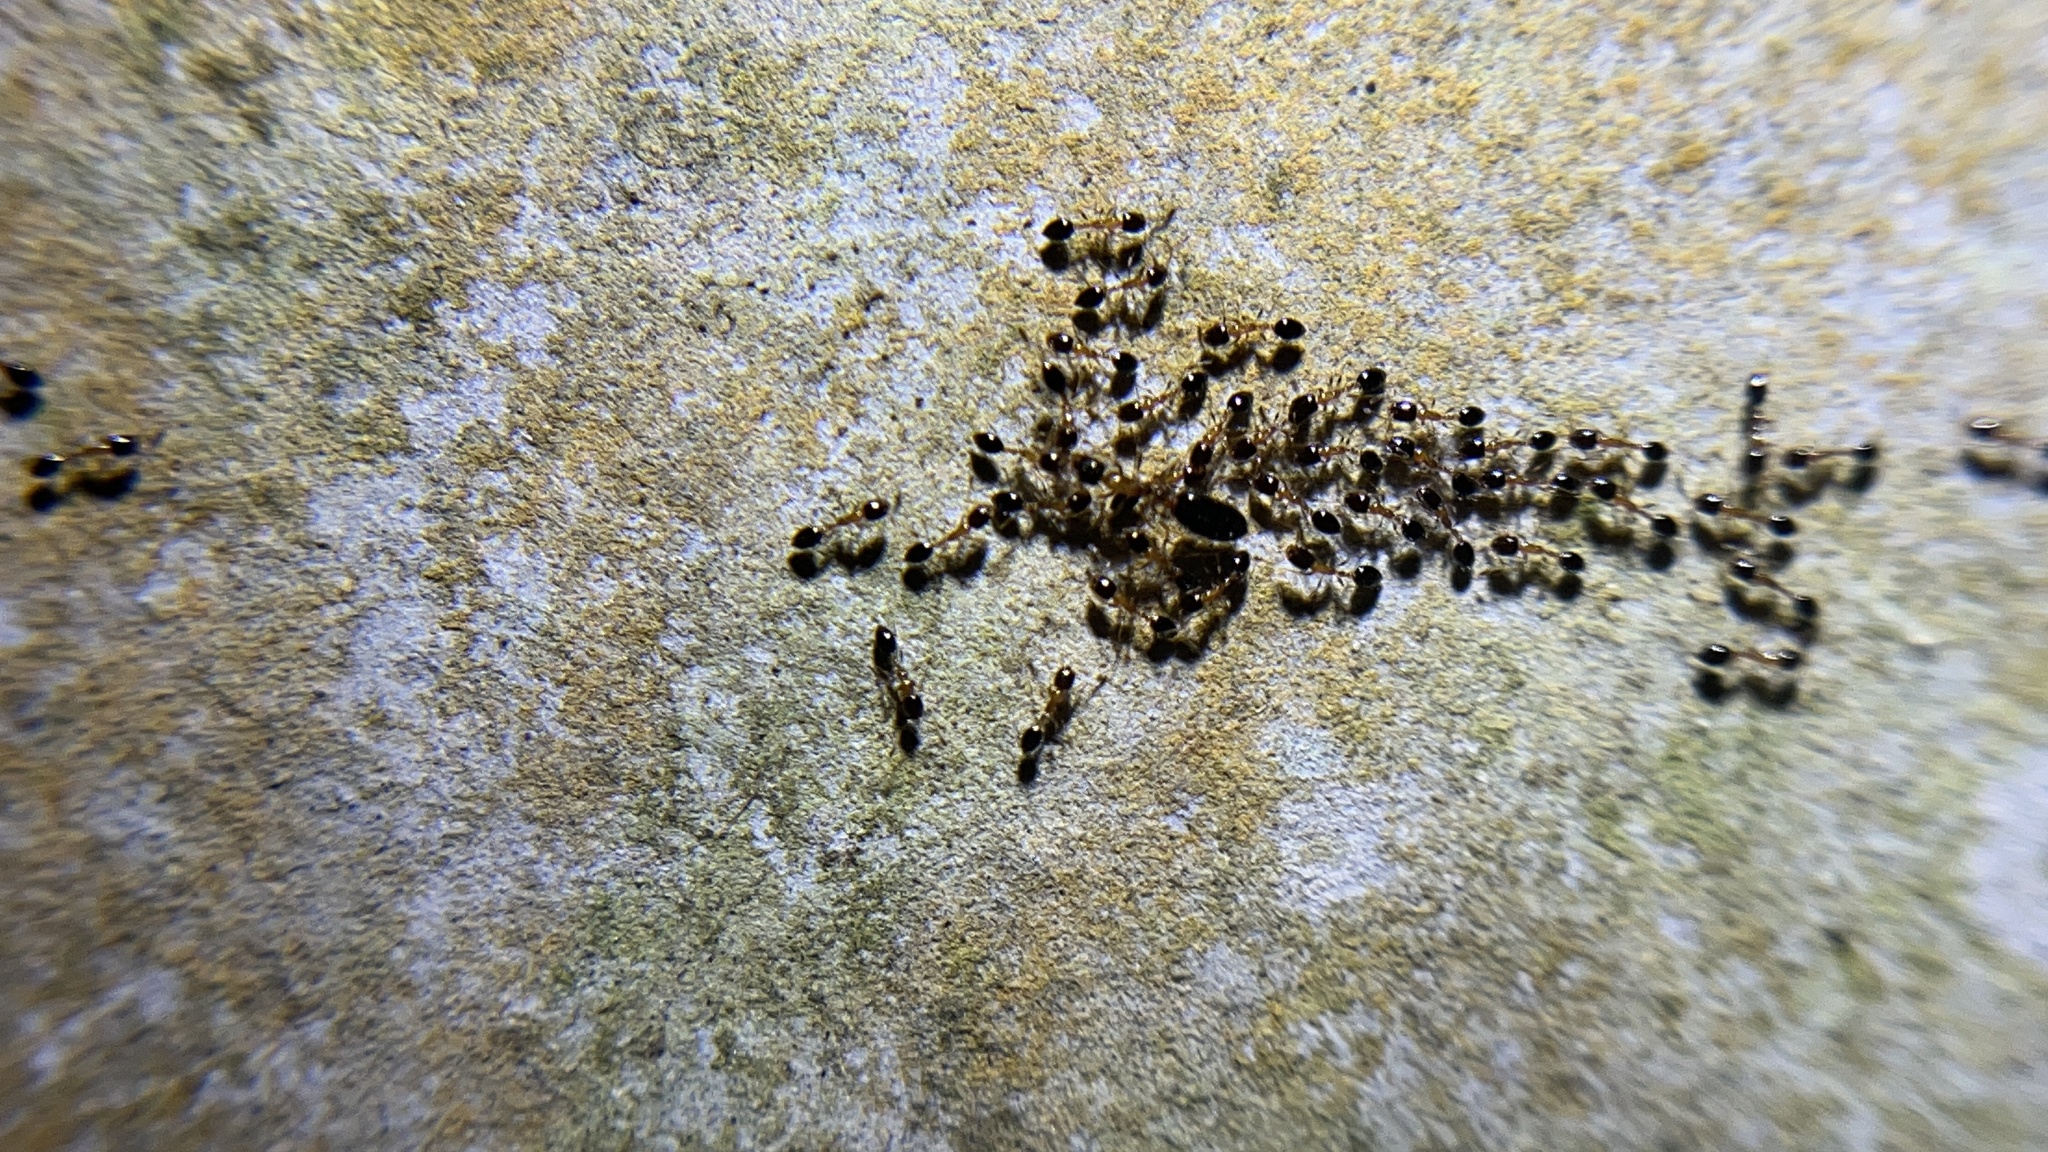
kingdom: Animalia
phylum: Arthropoda
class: Insecta
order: Hymenoptera
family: Formicidae
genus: Monomorium
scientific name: Monomorium floricola
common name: Bicolored trailing ant
